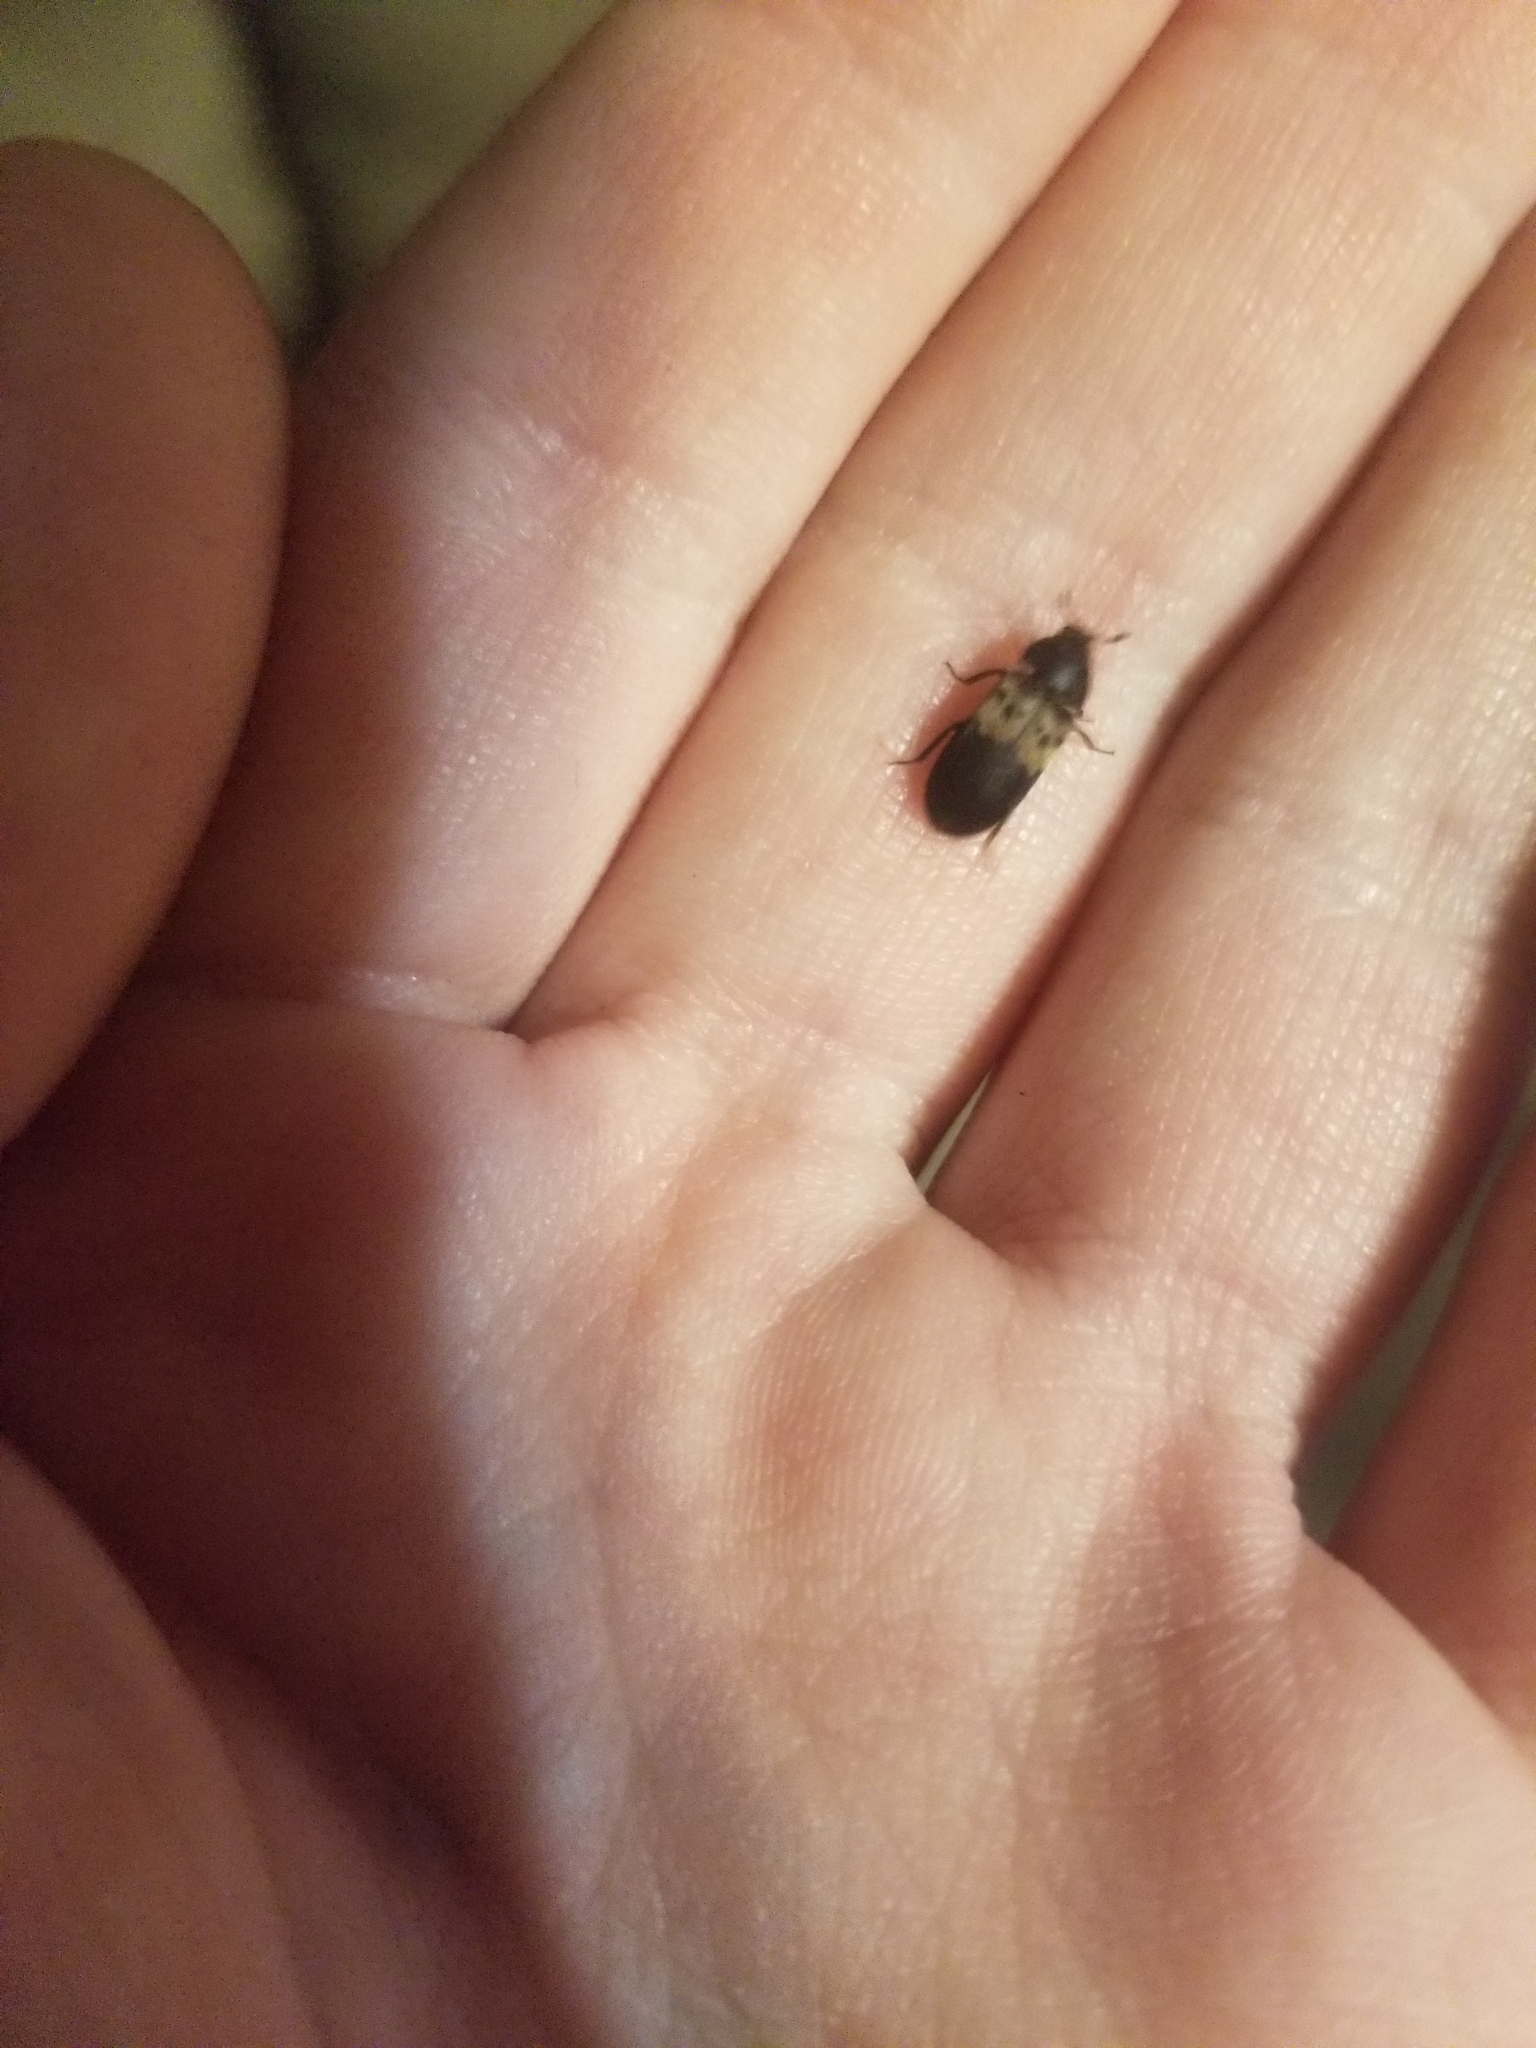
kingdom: Animalia
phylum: Arthropoda
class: Insecta
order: Coleoptera
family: Dermestidae
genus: Dermestes
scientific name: Dermestes lardarius
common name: Larder beetle
